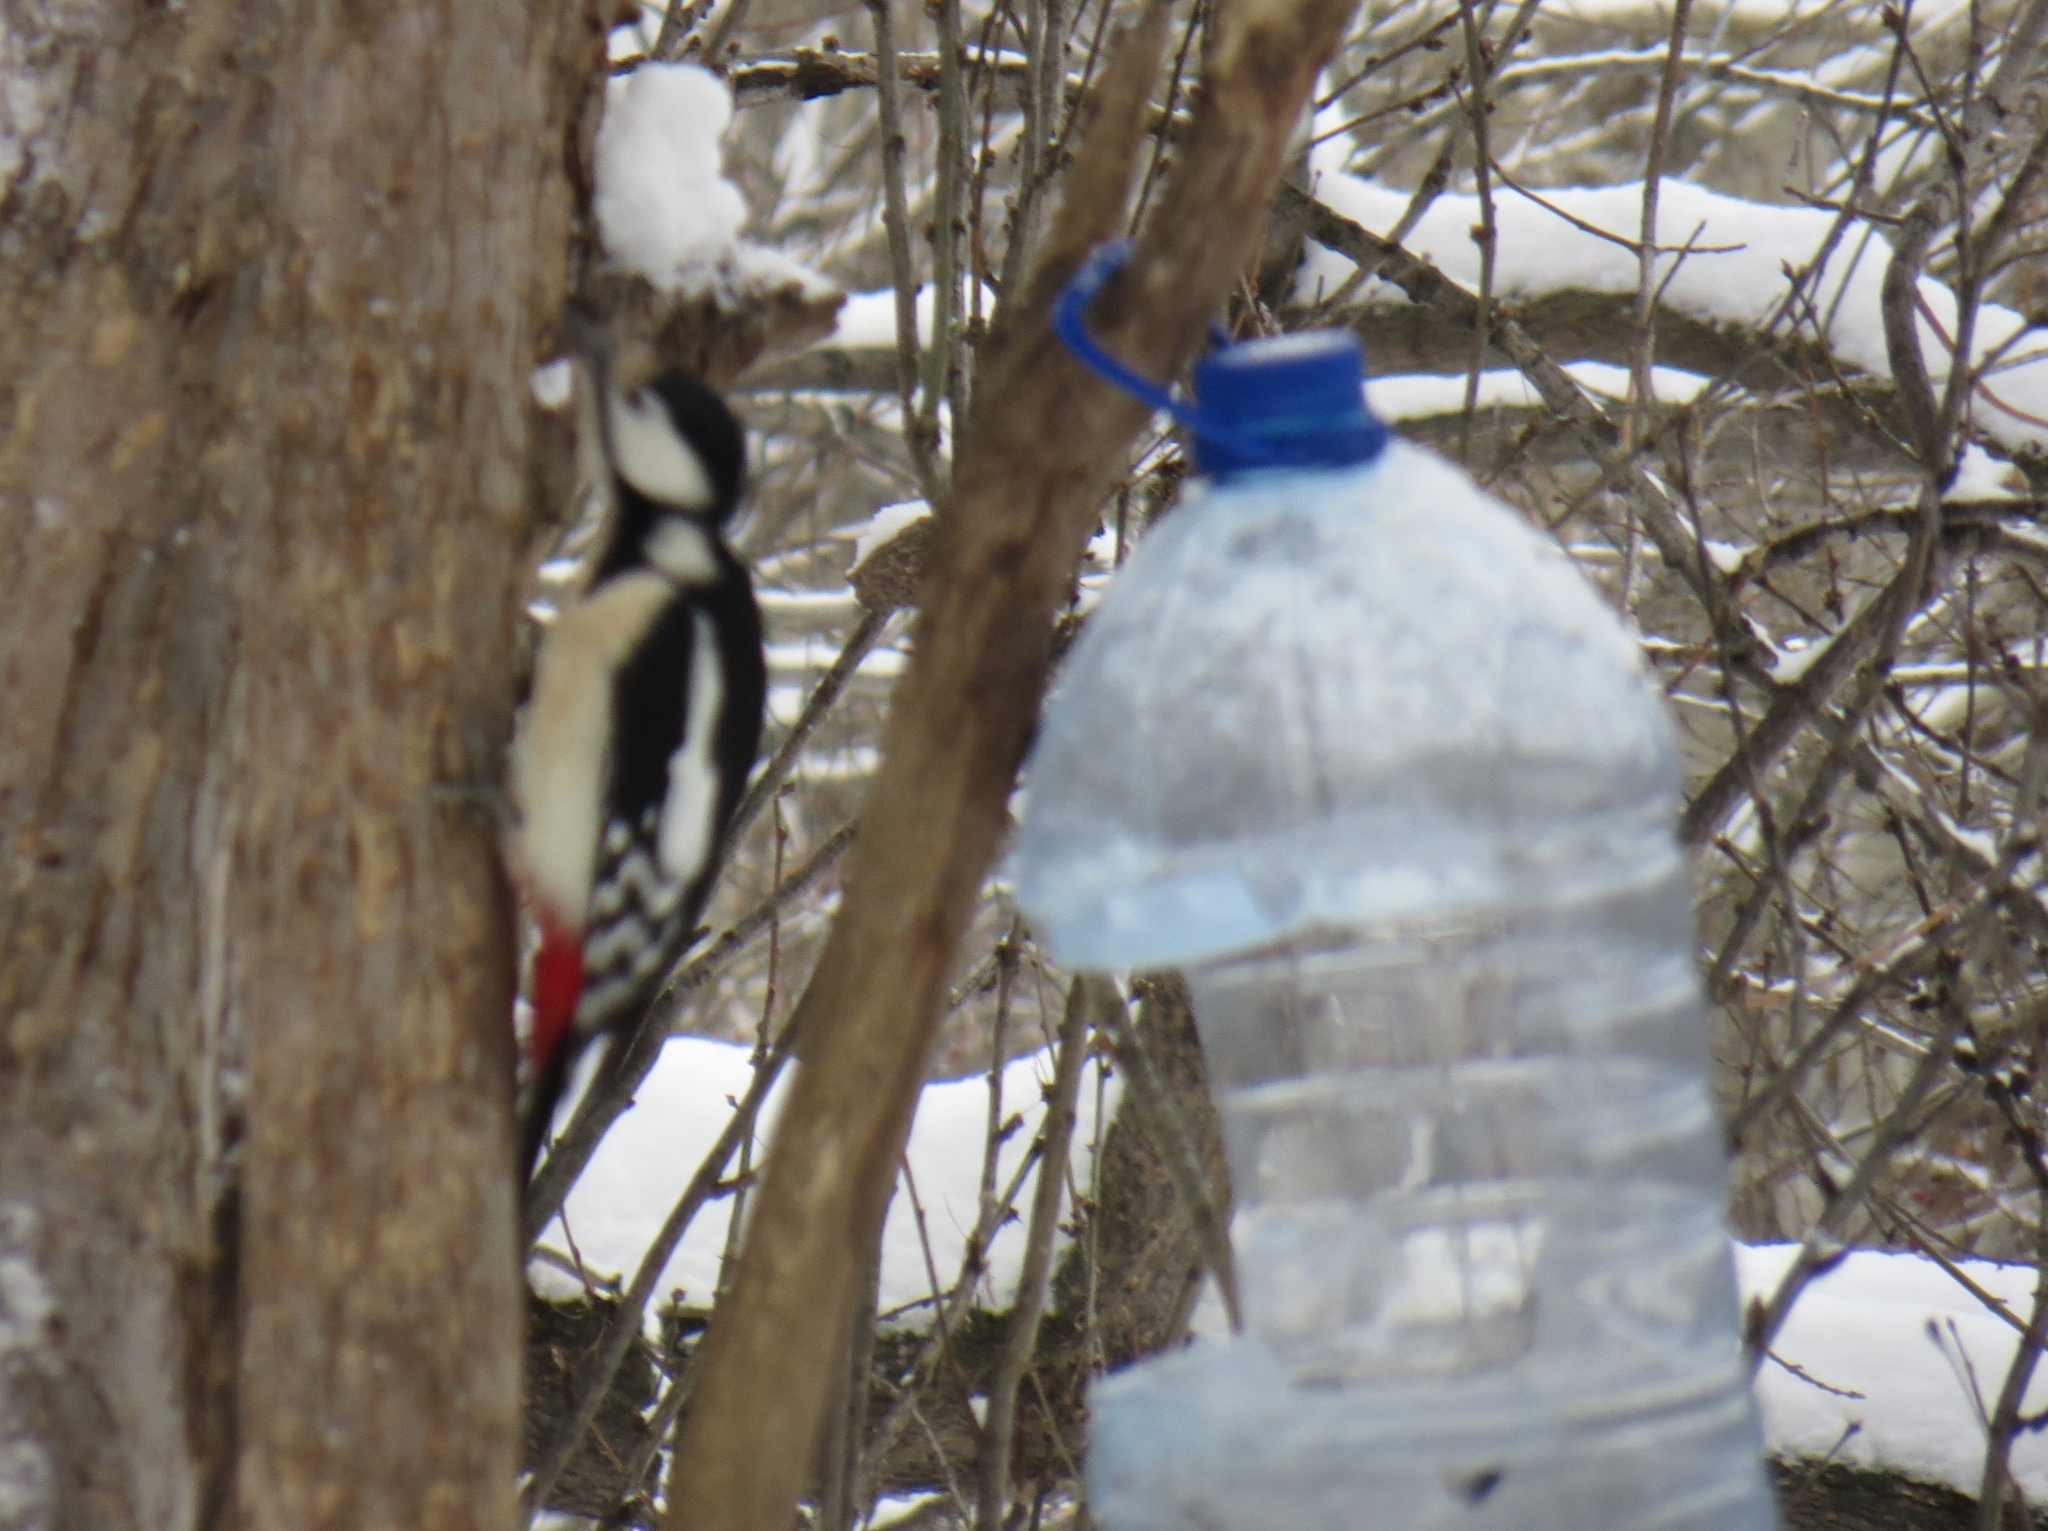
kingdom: Animalia
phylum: Chordata
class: Aves
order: Piciformes
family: Picidae
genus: Dendrocopos
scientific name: Dendrocopos major
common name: Great spotted woodpecker
